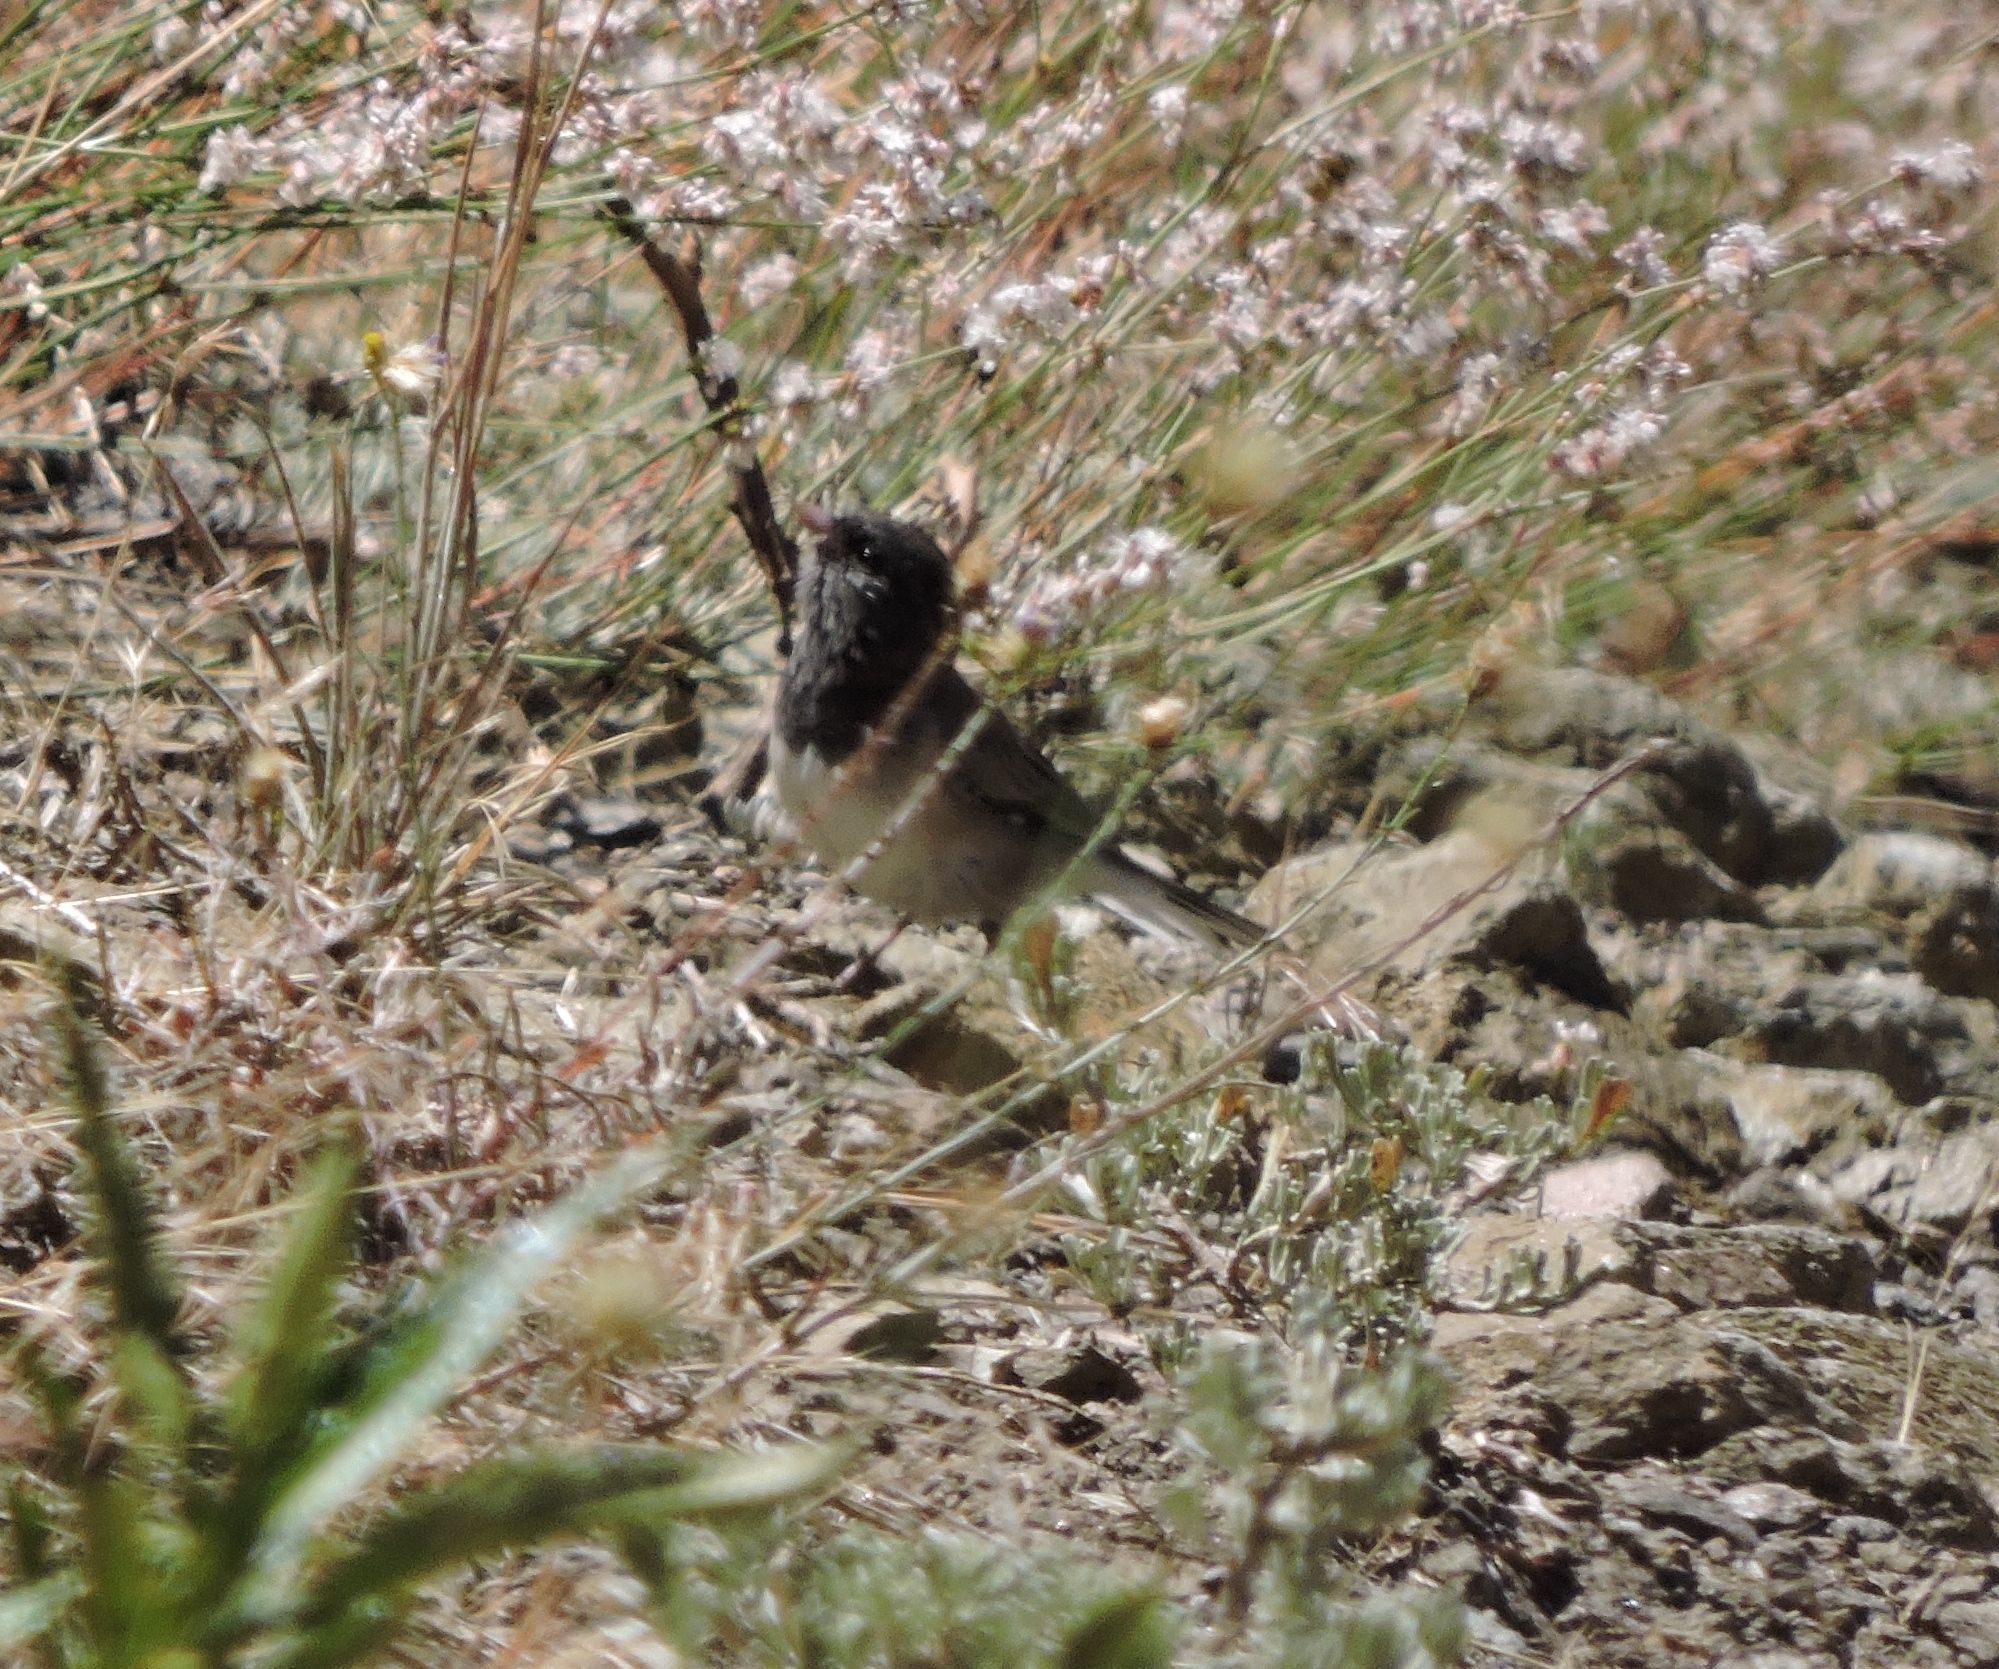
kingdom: Animalia
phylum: Chordata
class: Aves
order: Passeriformes
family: Passerellidae
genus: Junco
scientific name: Junco hyemalis
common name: Dark-eyed junco
